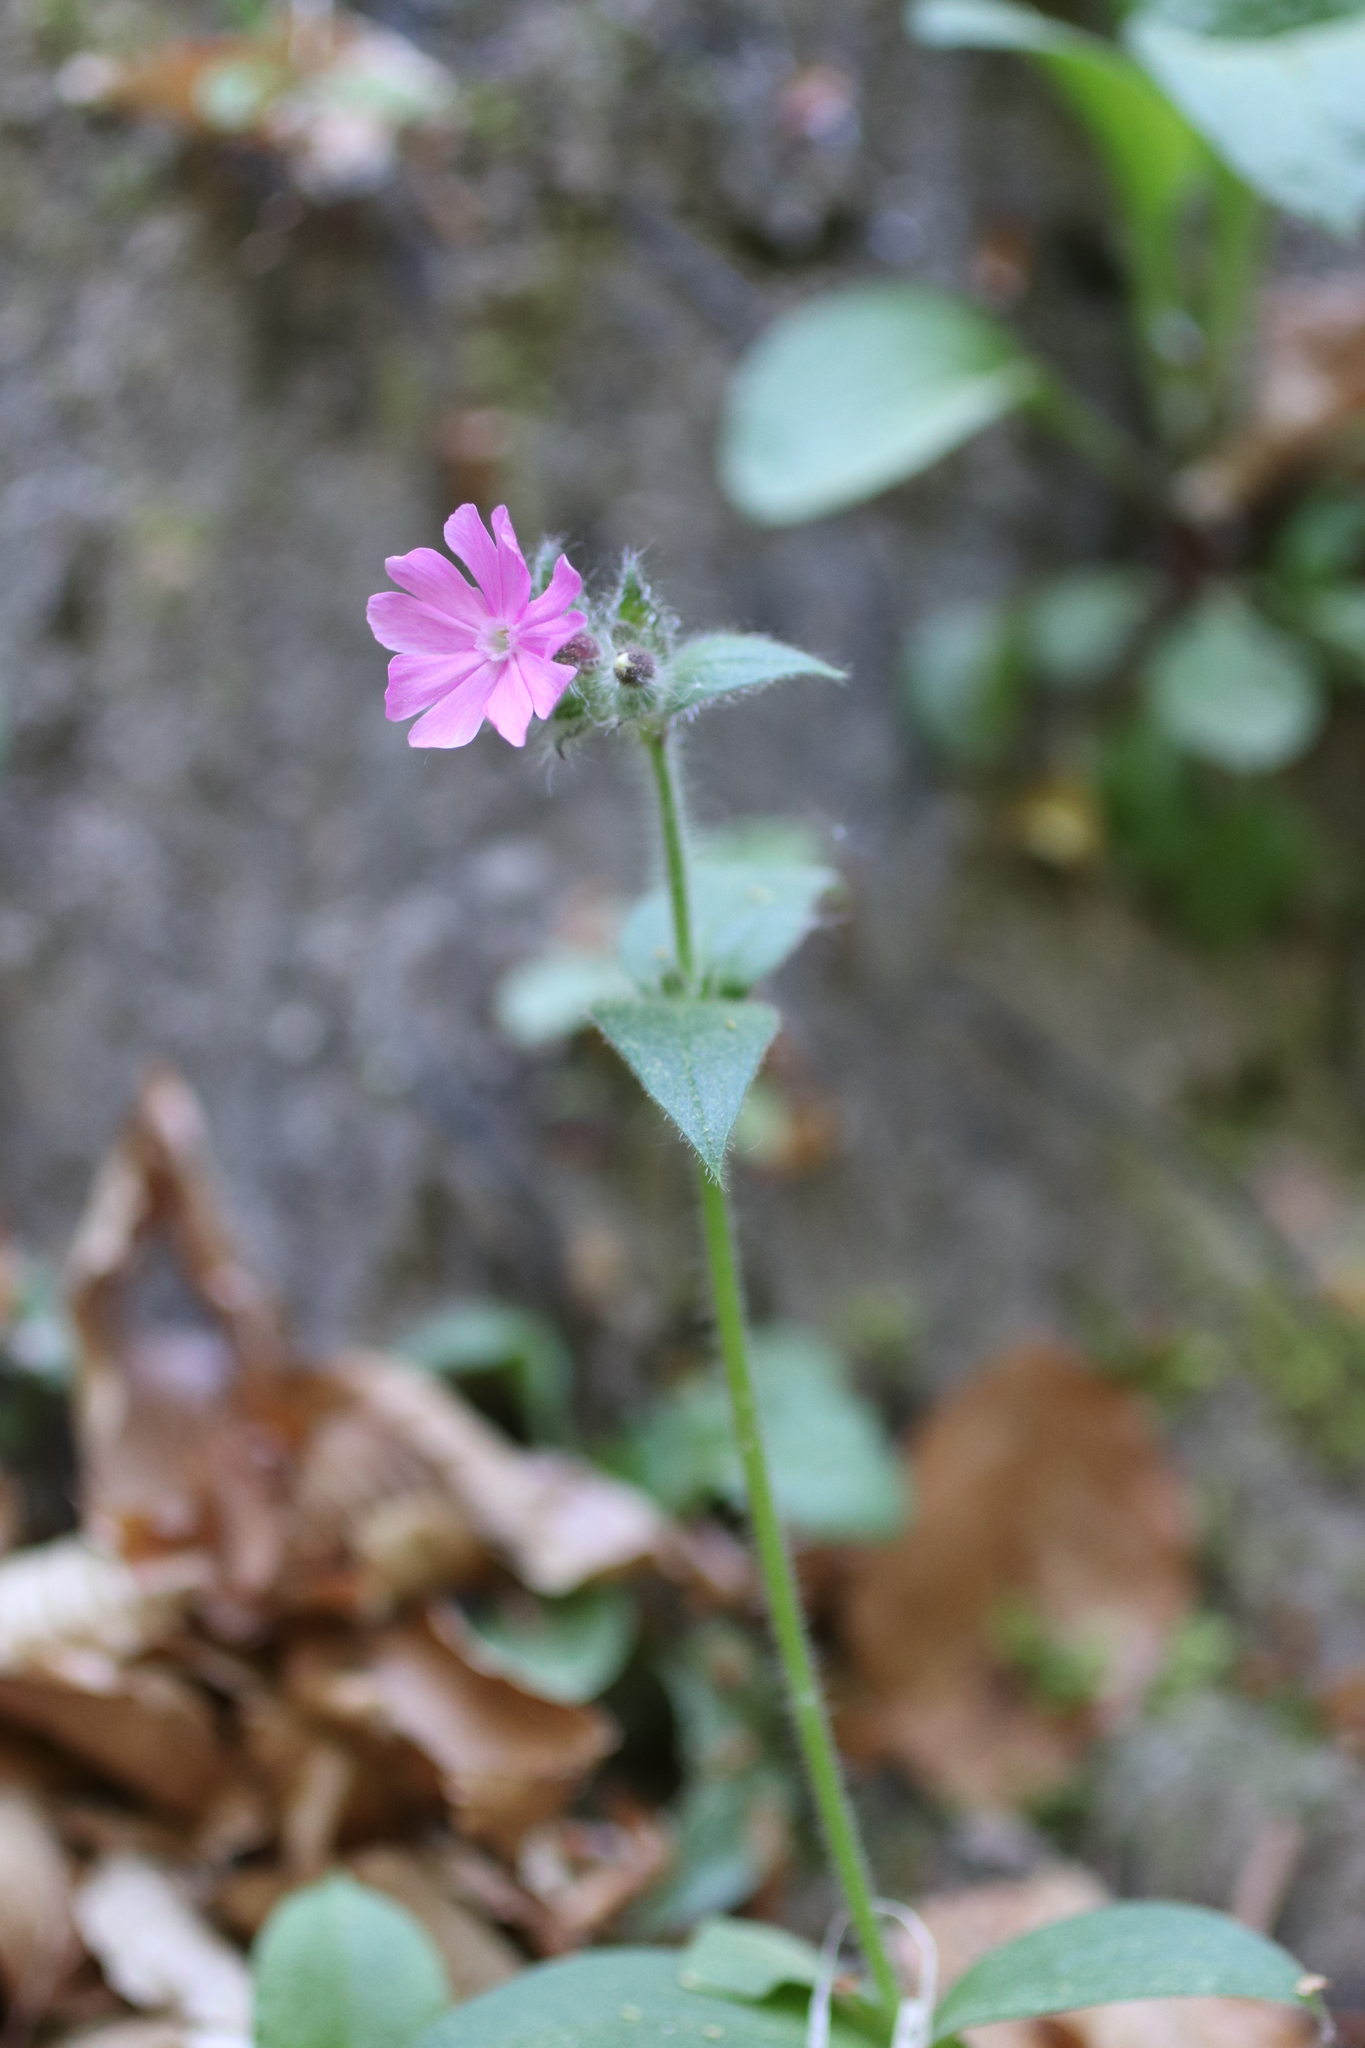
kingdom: Plantae
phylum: Tracheophyta
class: Magnoliopsida
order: Caryophyllales
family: Caryophyllaceae
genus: Silene
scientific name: Silene dioica
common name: Red campion
